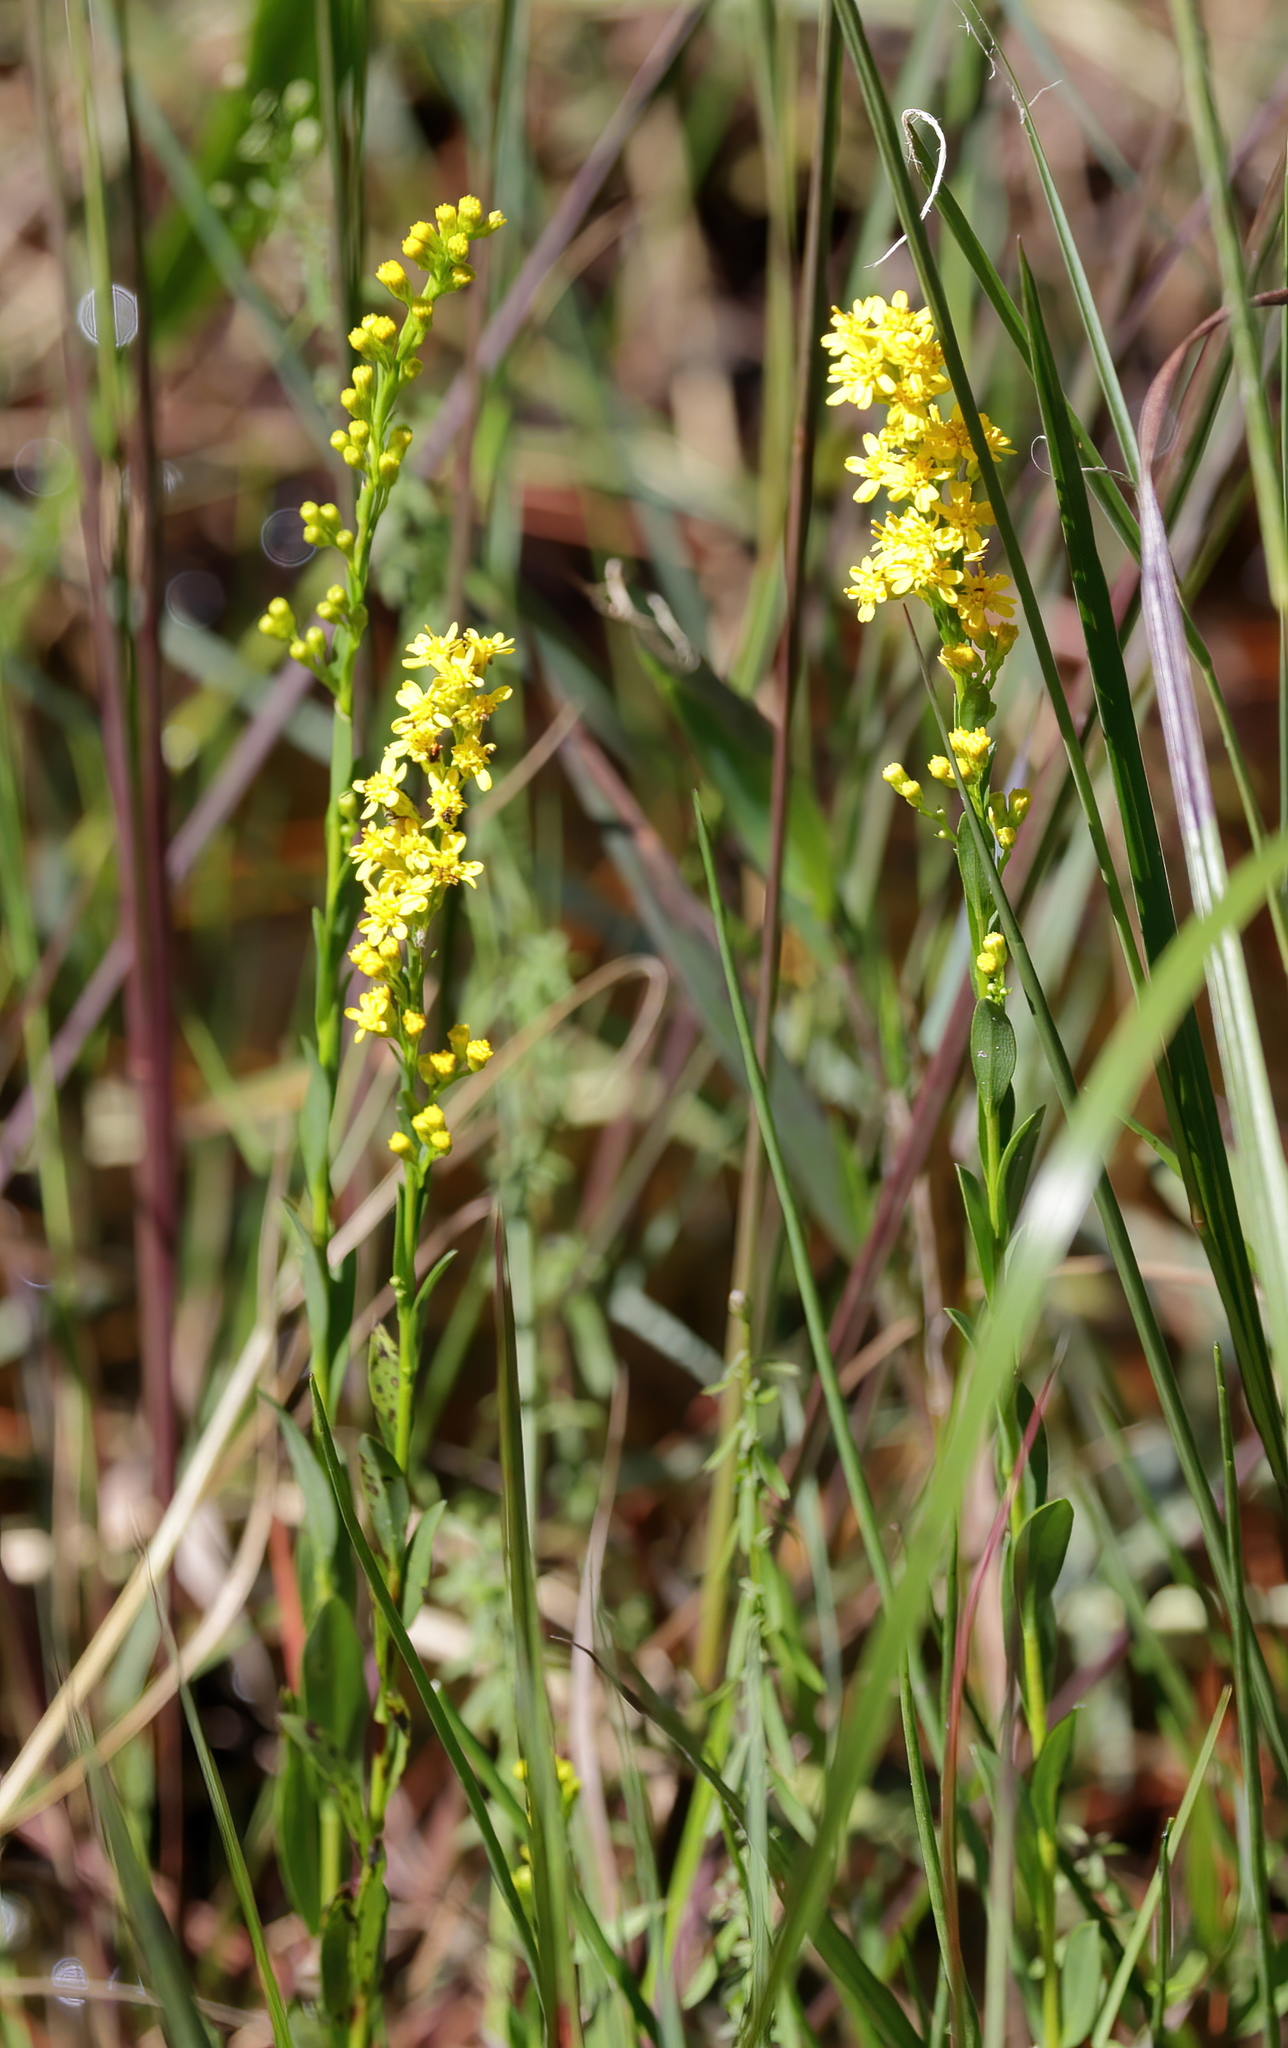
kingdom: Plantae
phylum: Tracheophyta
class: Magnoliopsida
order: Asterales
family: Asteraceae
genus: Solidago
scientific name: Solidago virgata
